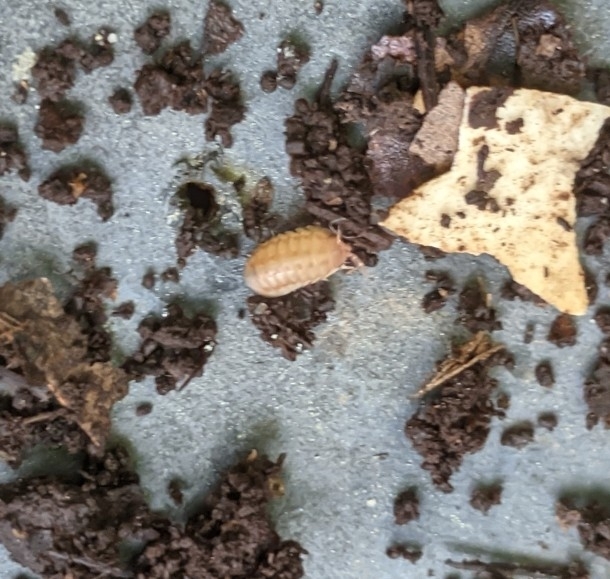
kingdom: Animalia
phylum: Arthropoda
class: Malacostraca
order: Isopoda
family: Armadillidiidae
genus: Armadillidium
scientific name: Armadillidium nasatum
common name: Isopod
